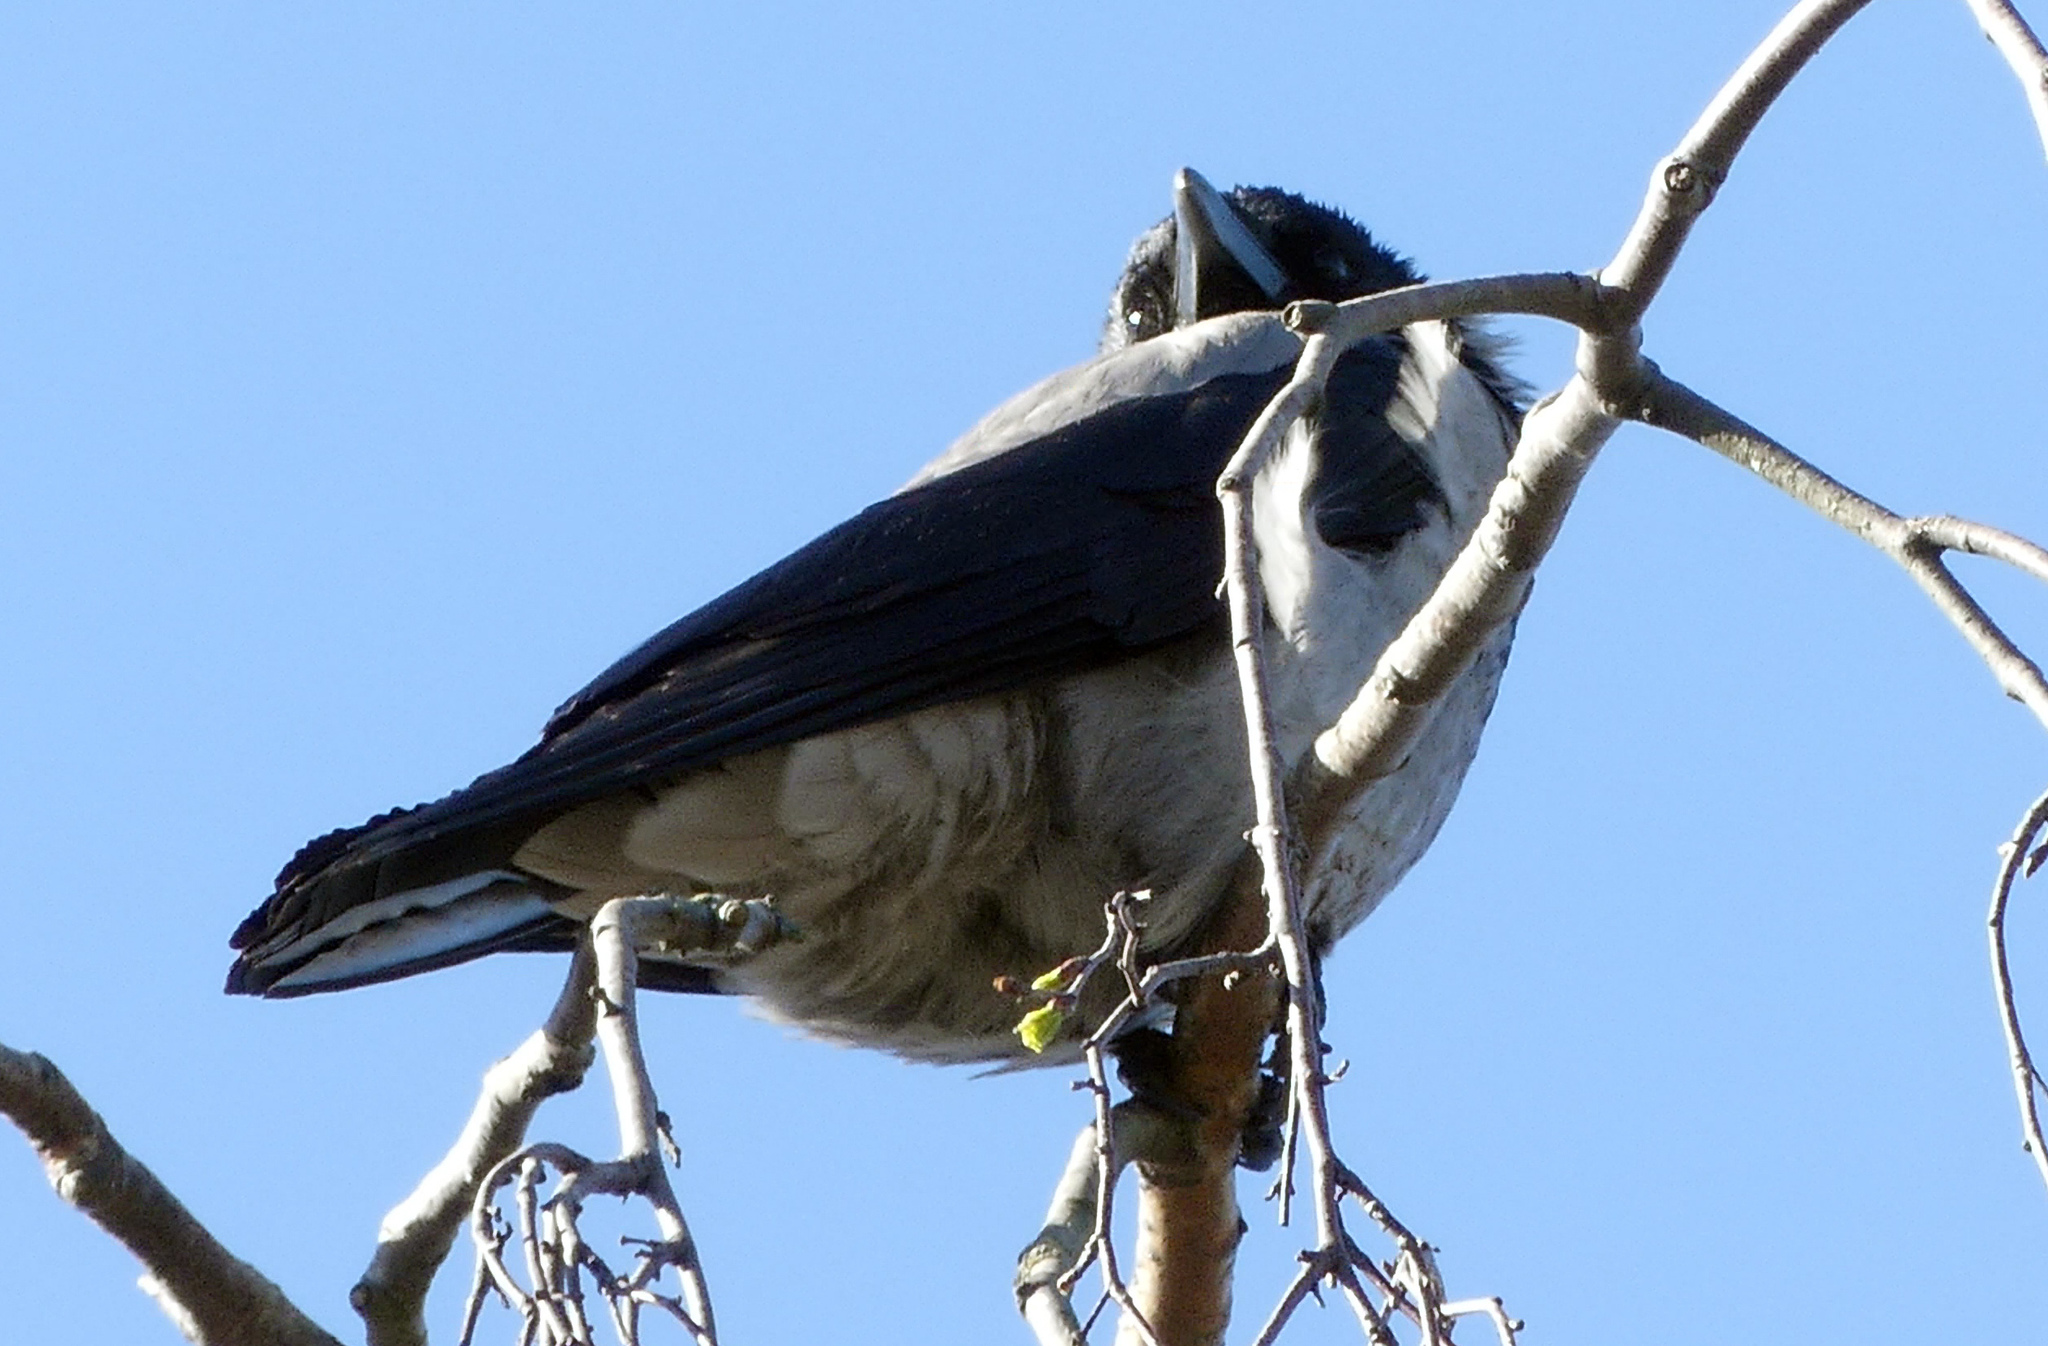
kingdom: Animalia
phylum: Chordata
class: Aves
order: Passeriformes
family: Corvidae
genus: Corvus
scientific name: Corvus cornix
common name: Hooded crow
